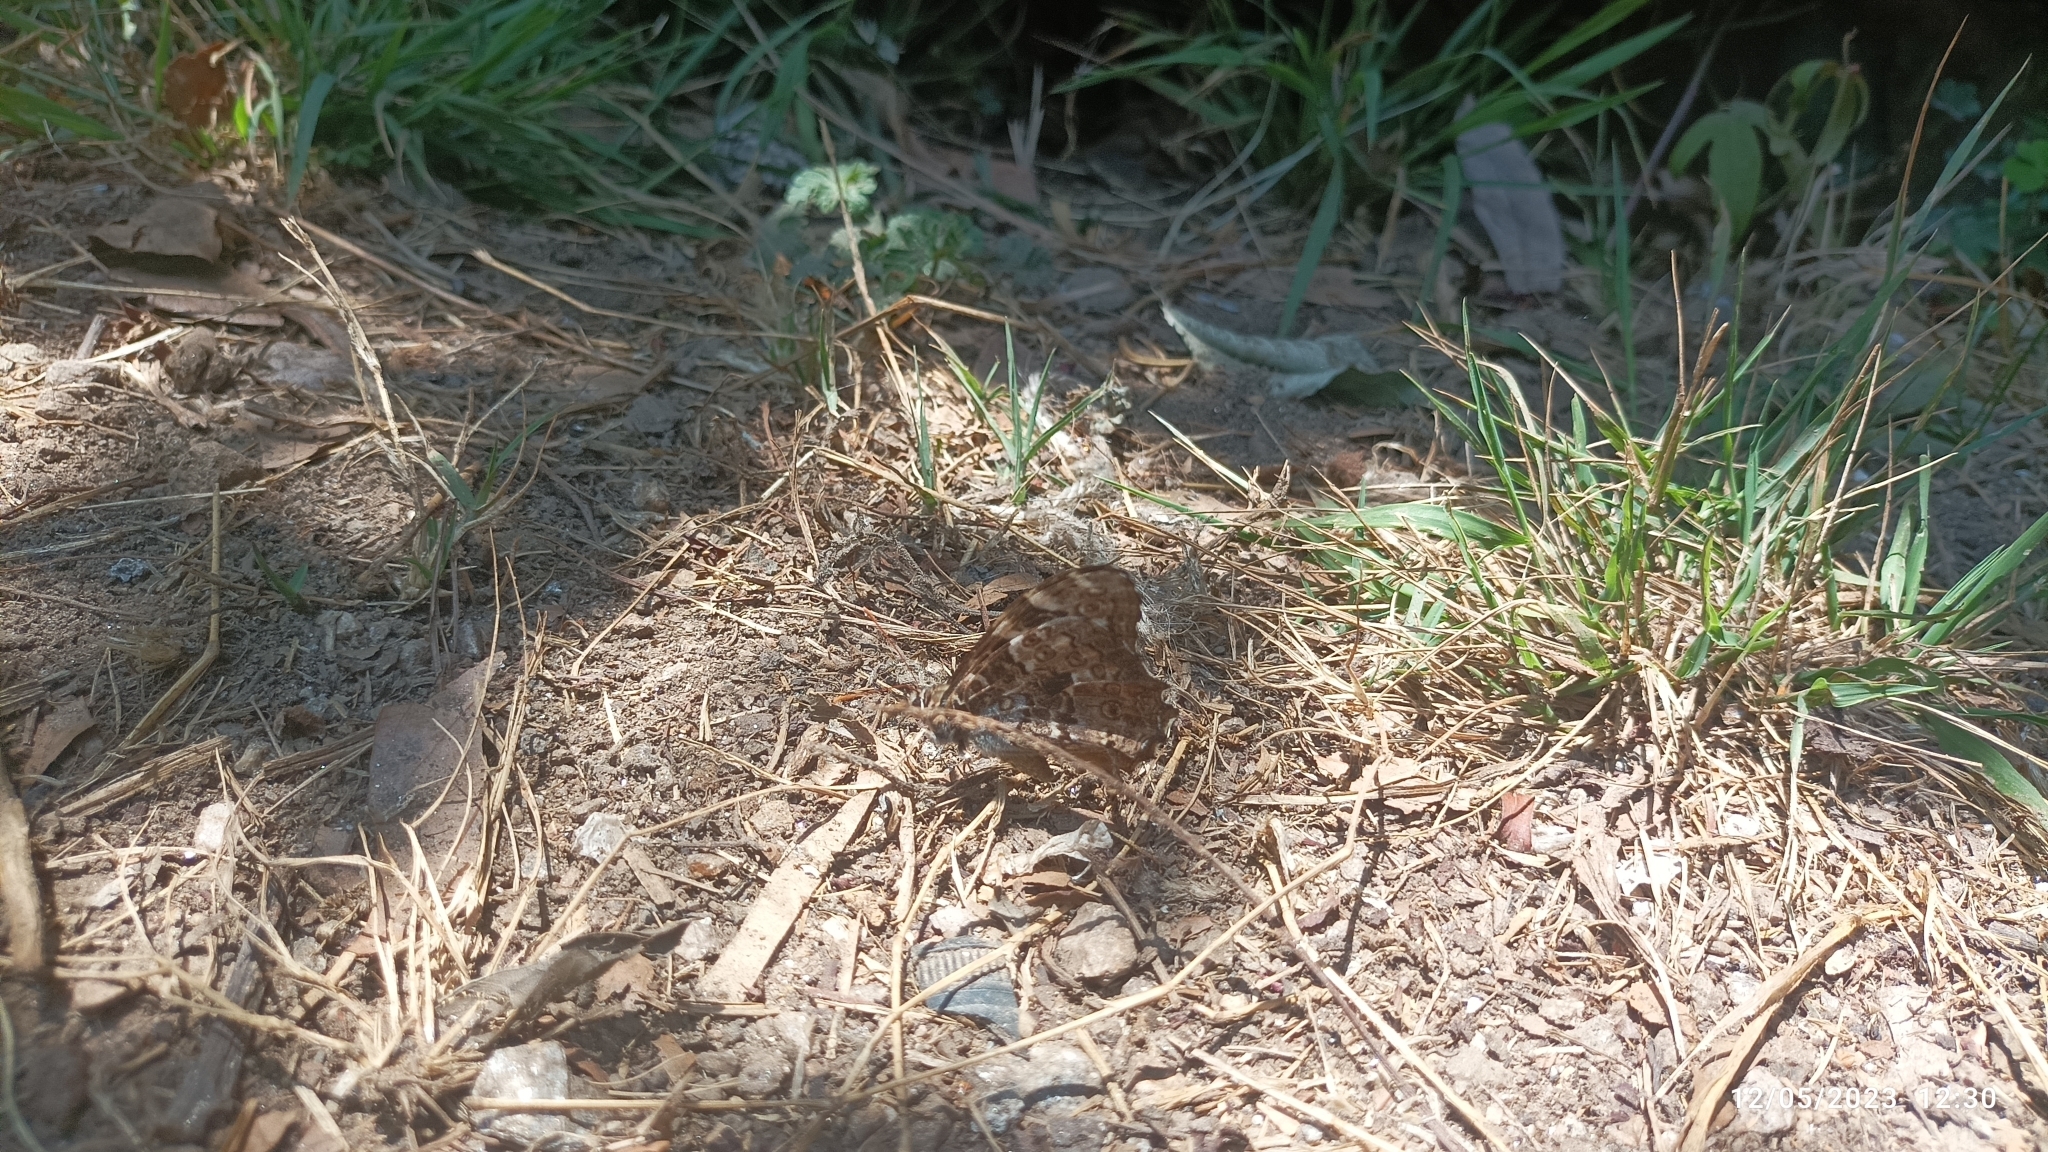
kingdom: Animalia
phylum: Arthropoda
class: Insecta
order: Lepidoptera
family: Nymphalidae
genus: Neope
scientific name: Neope pulaha
